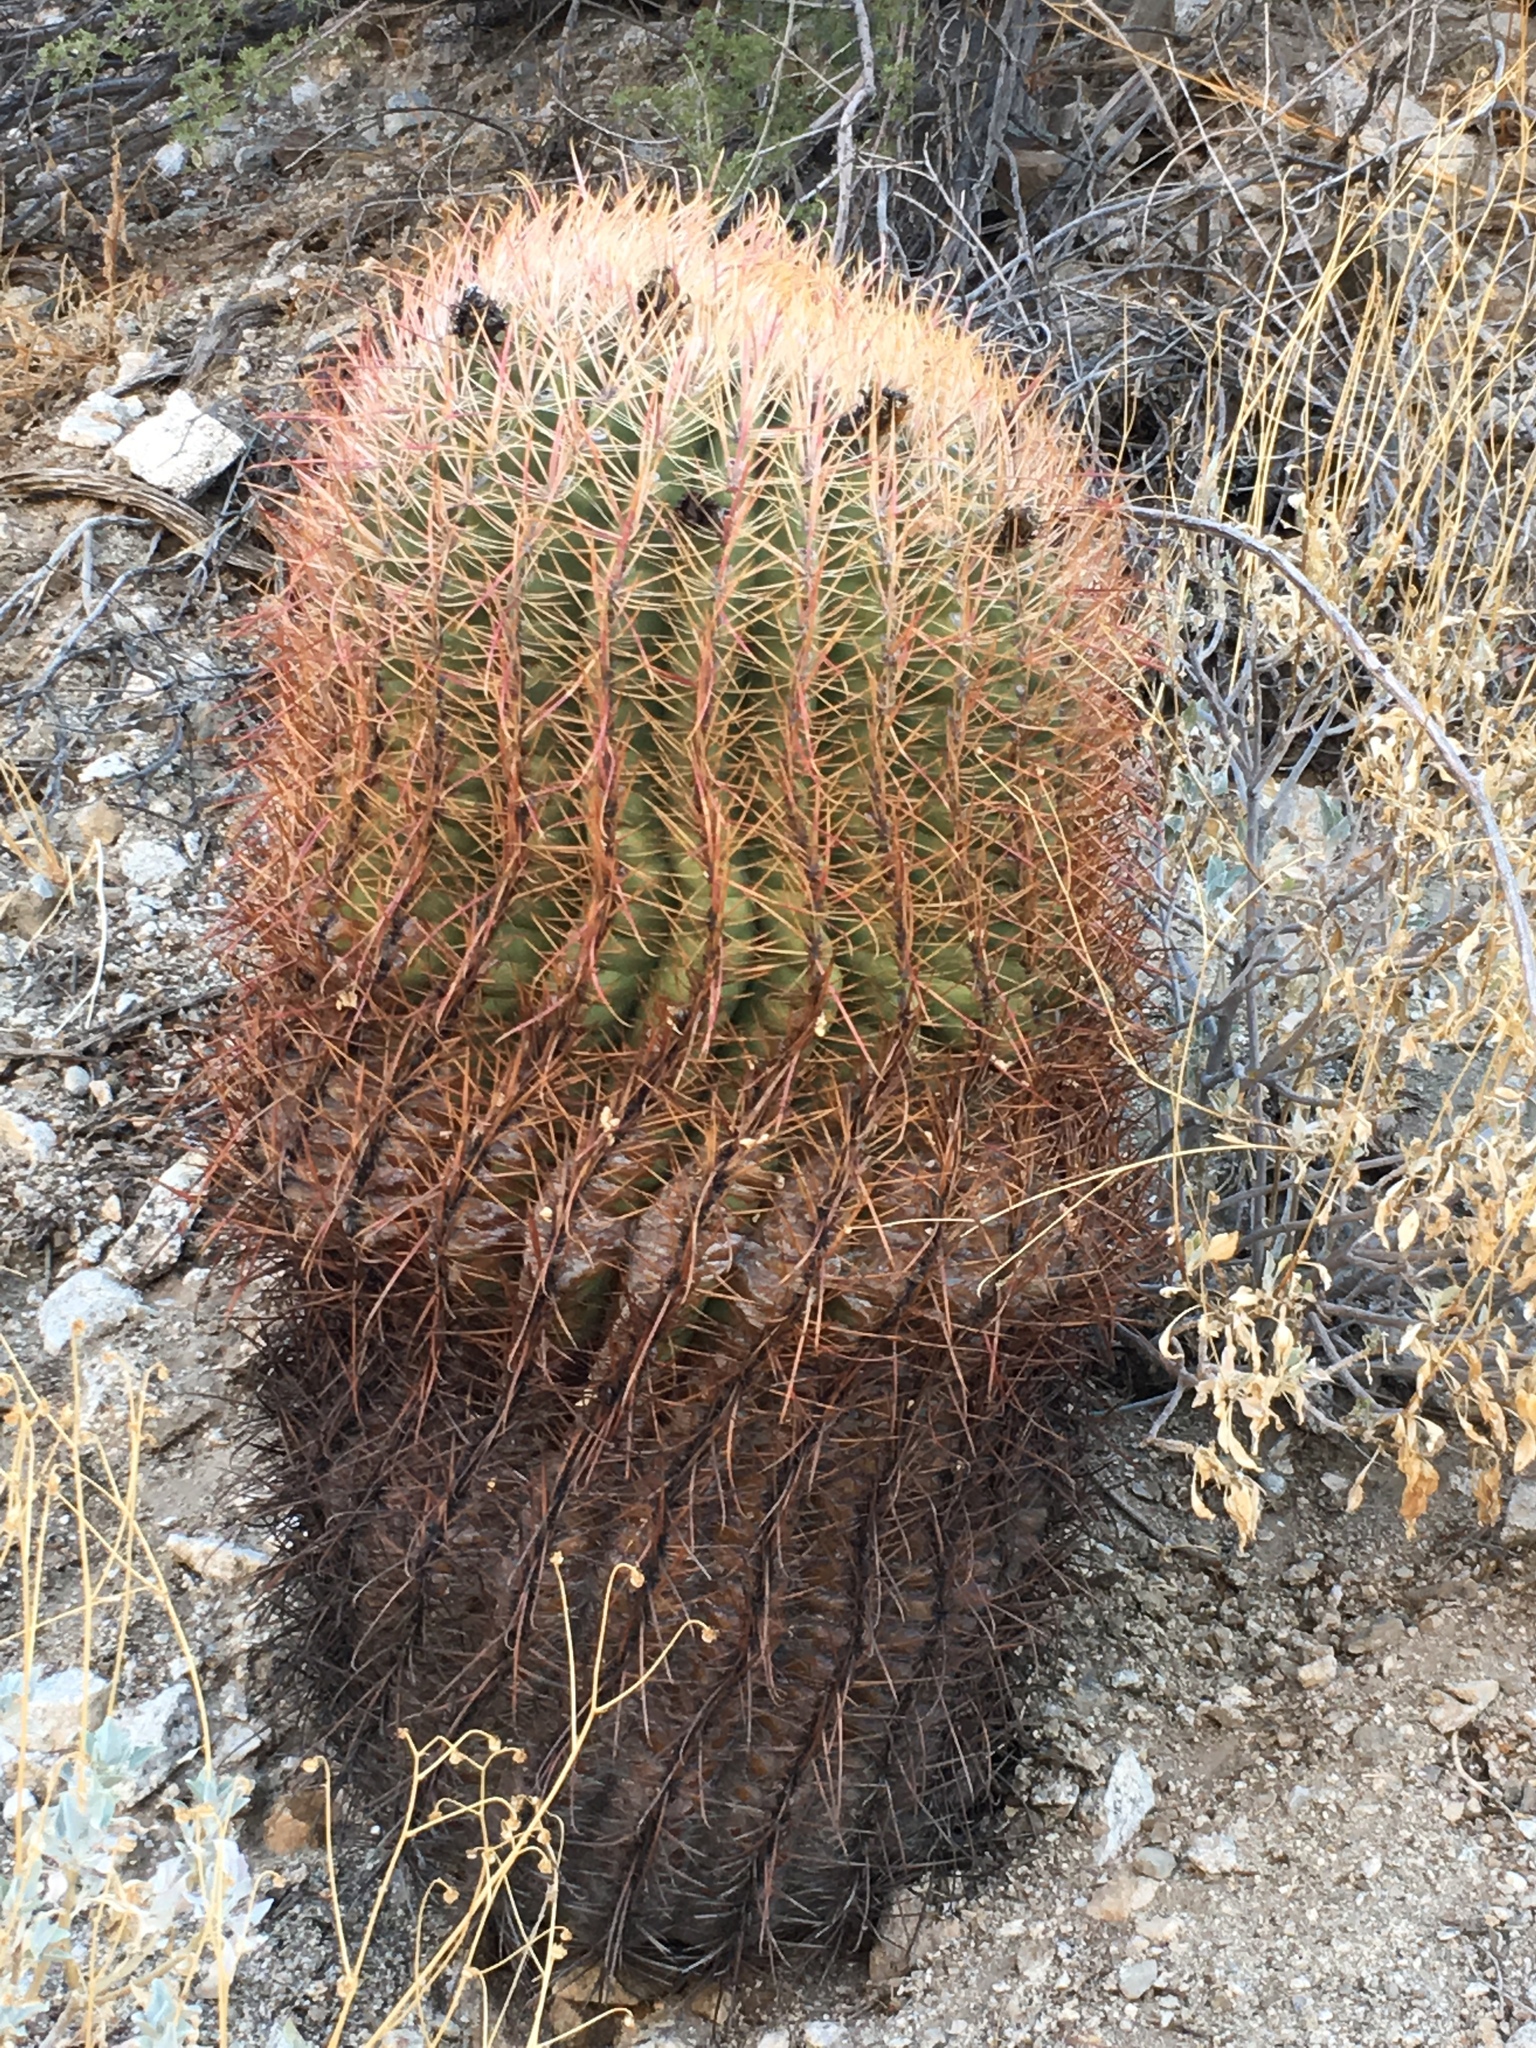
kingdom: Plantae
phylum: Tracheophyta
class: Magnoliopsida
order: Caryophyllales
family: Cactaceae
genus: Ferocactus
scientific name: Ferocactus cylindraceus
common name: California barrel cactus
